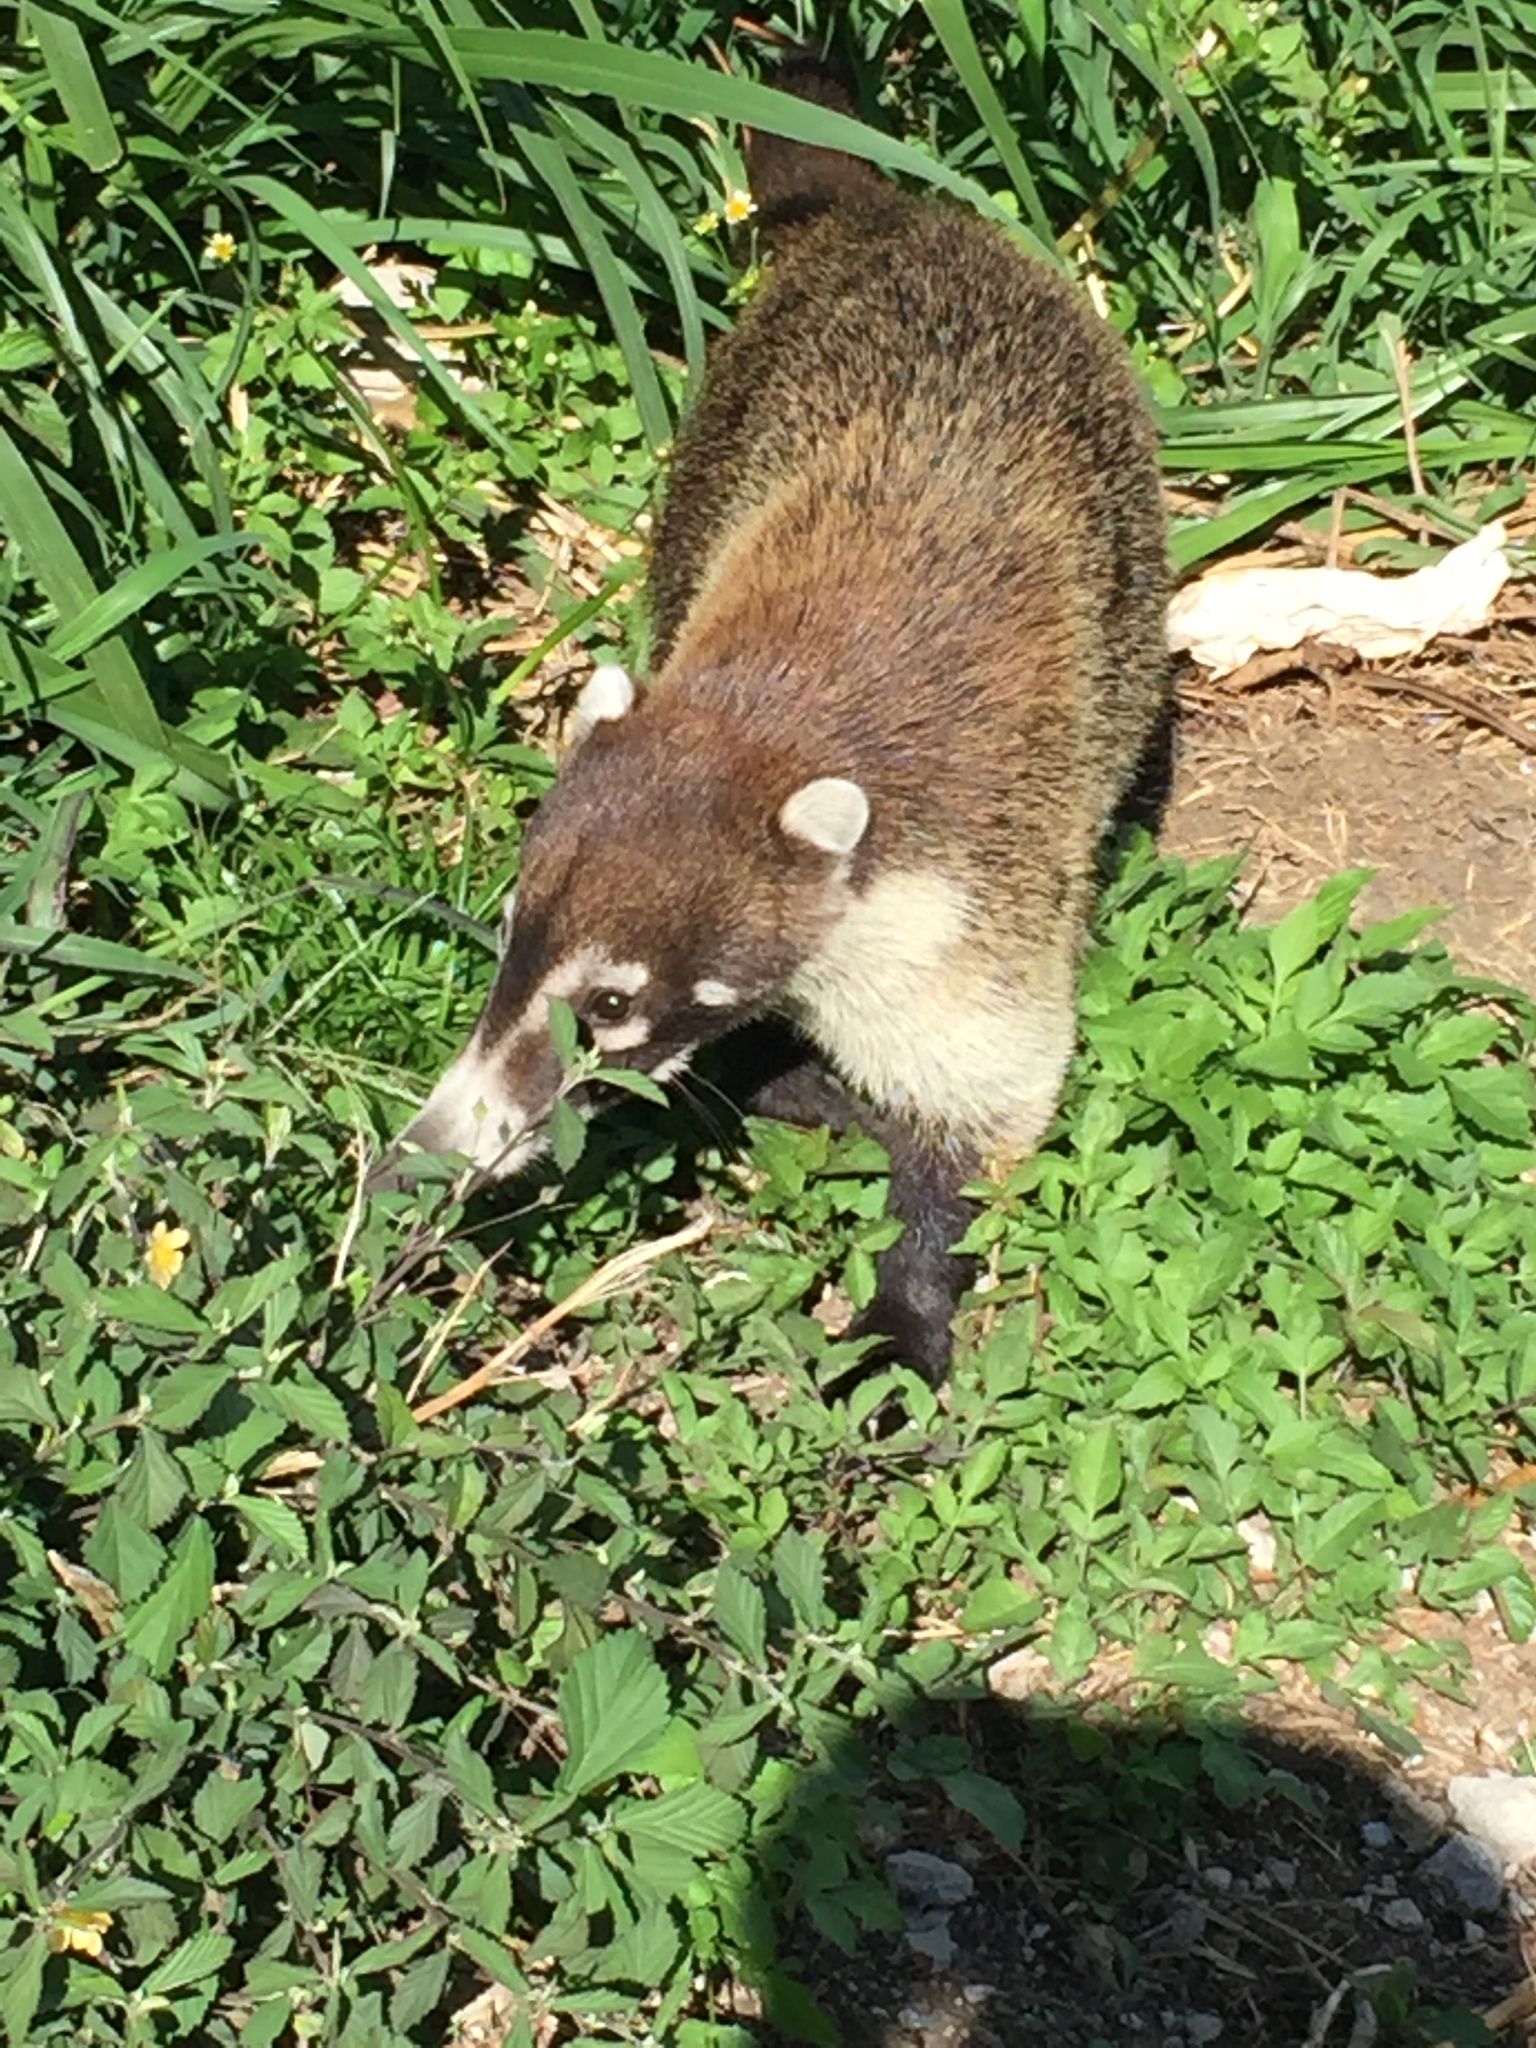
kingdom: Animalia
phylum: Chordata
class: Mammalia
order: Carnivora
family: Procyonidae
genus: Nasua
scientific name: Nasua narica
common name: White-nosed coati
